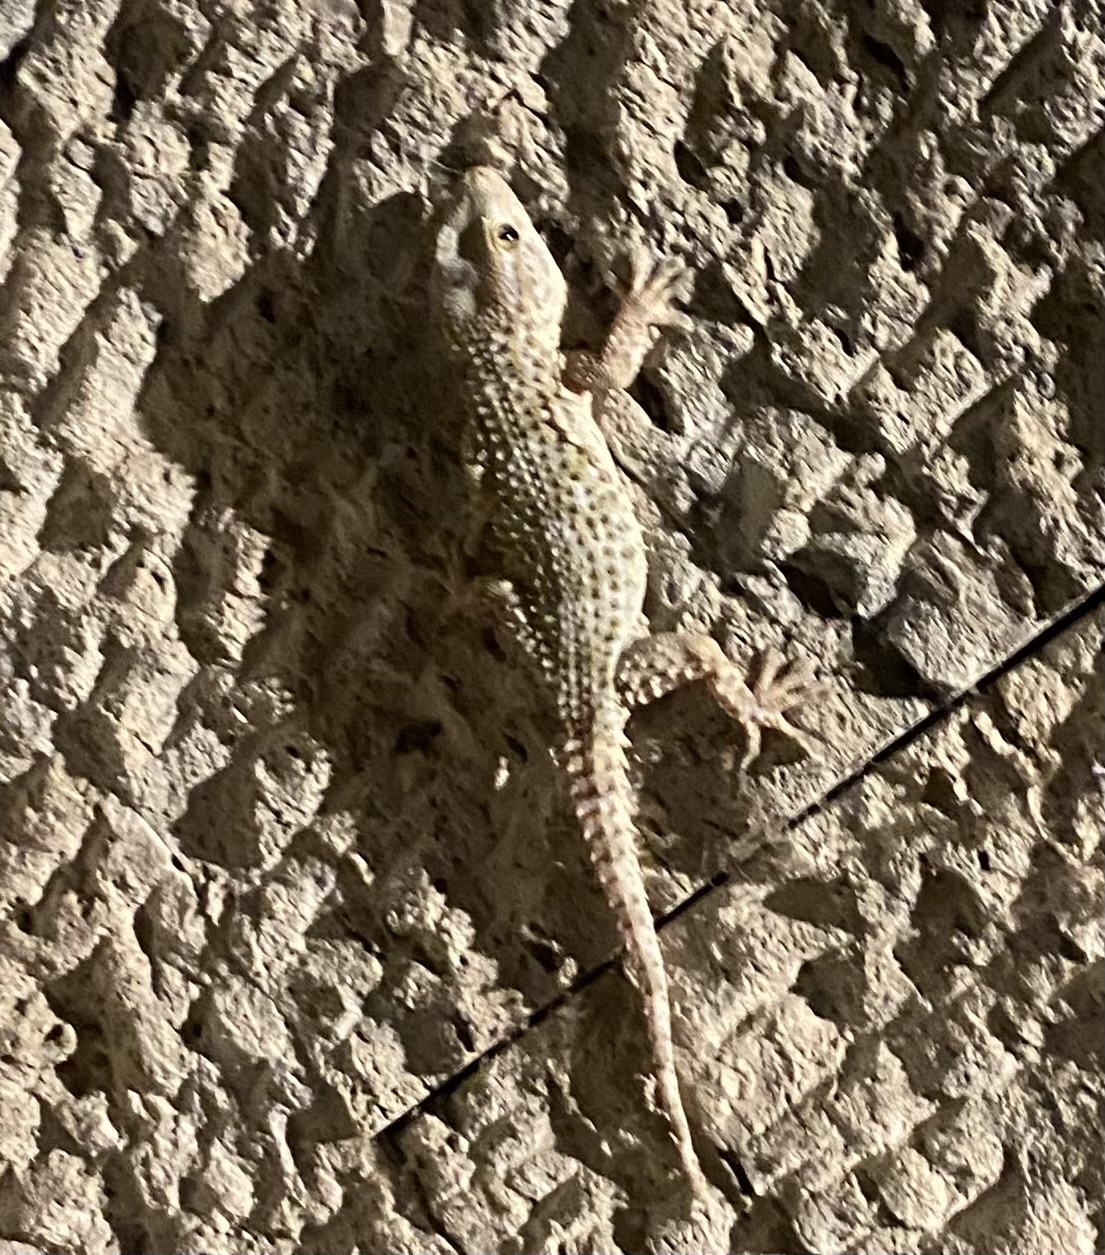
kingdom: Animalia
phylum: Chordata
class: Squamata
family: Phyllodactylidae
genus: Tarentola
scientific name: Tarentola mauritanica
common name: Moorish gecko
